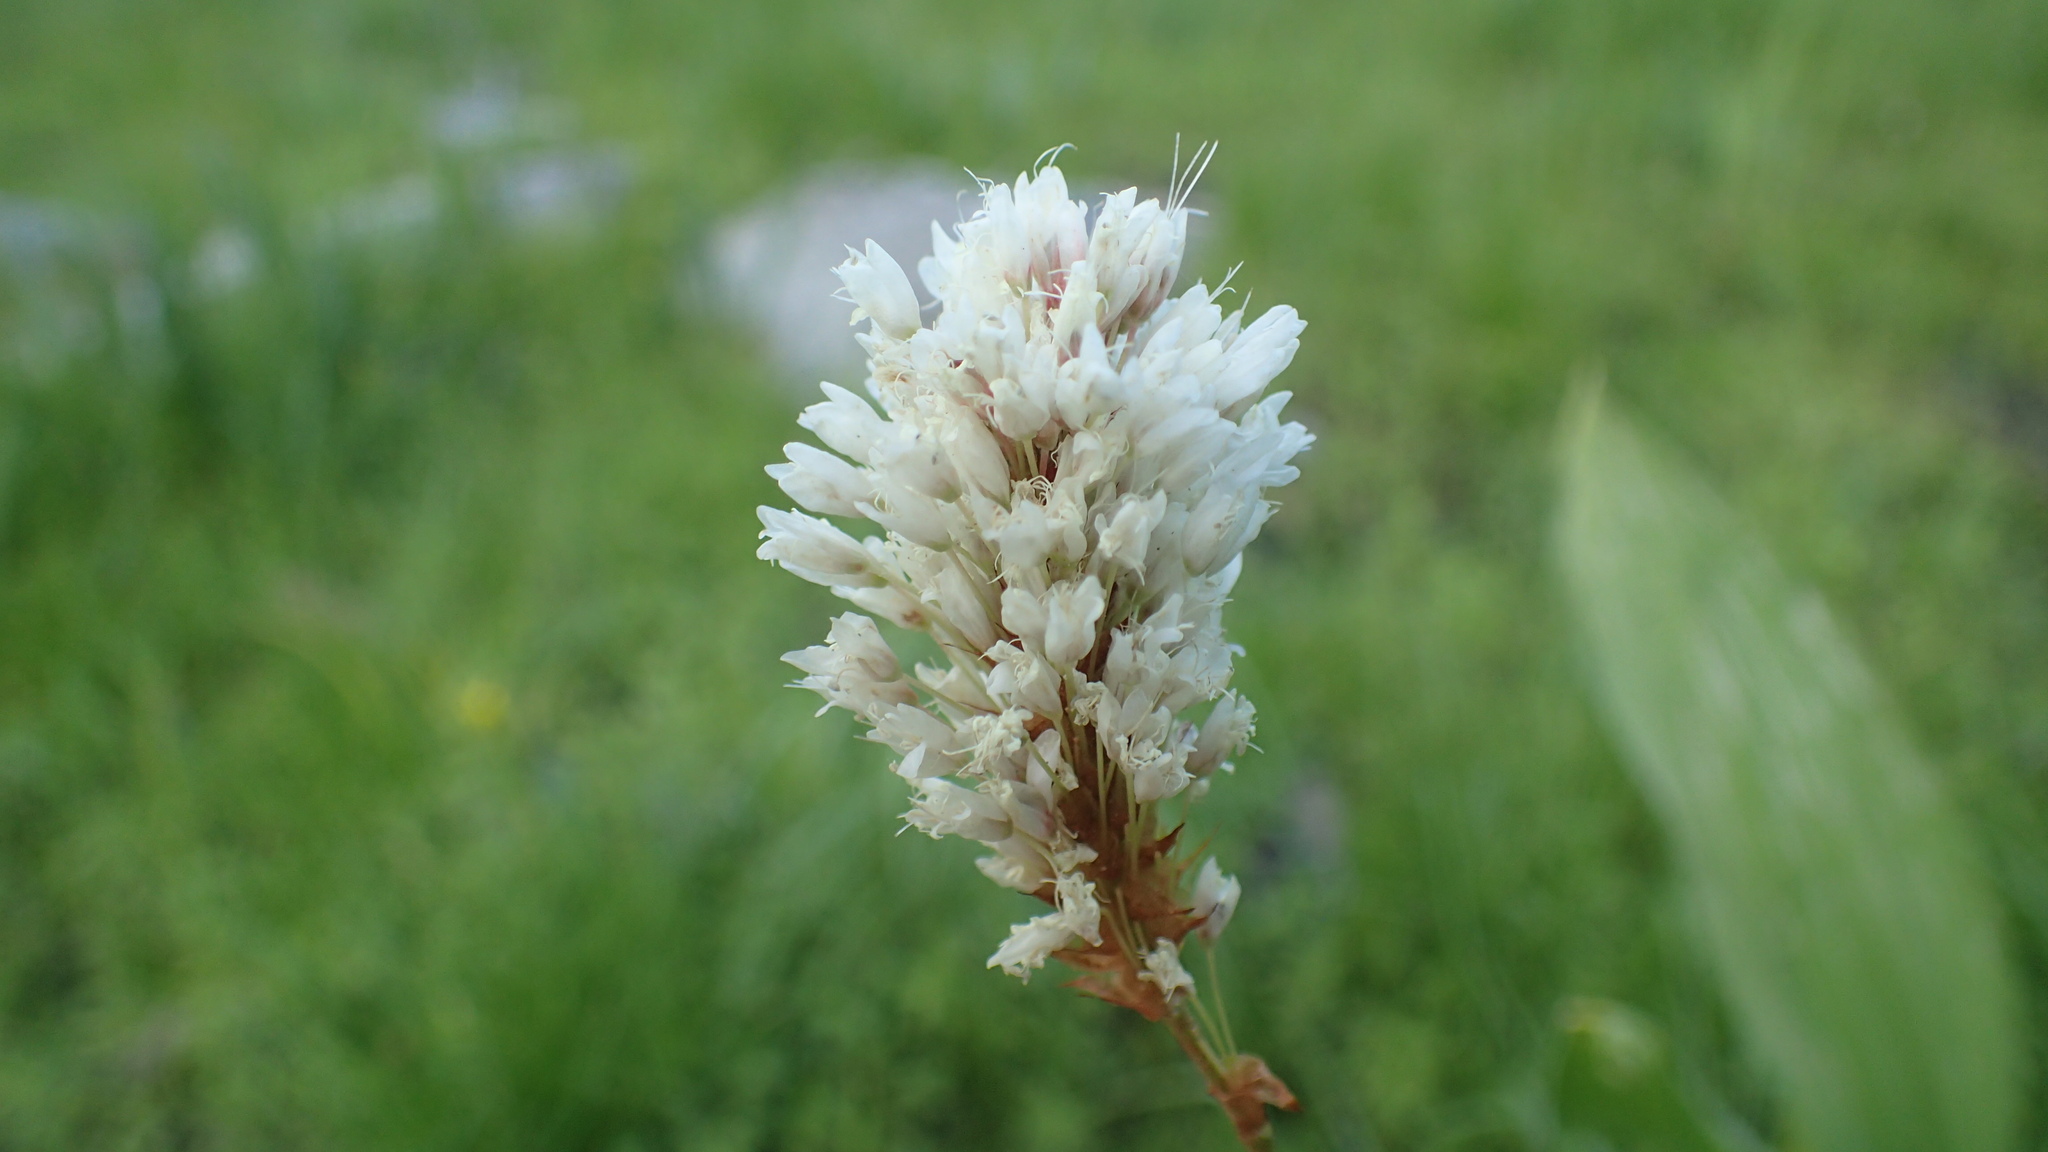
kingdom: Plantae
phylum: Tracheophyta
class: Magnoliopsida
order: Caryophyllales
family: Polygonaceae
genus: Bistorta
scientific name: Bistorta bistortoides
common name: American bistort
